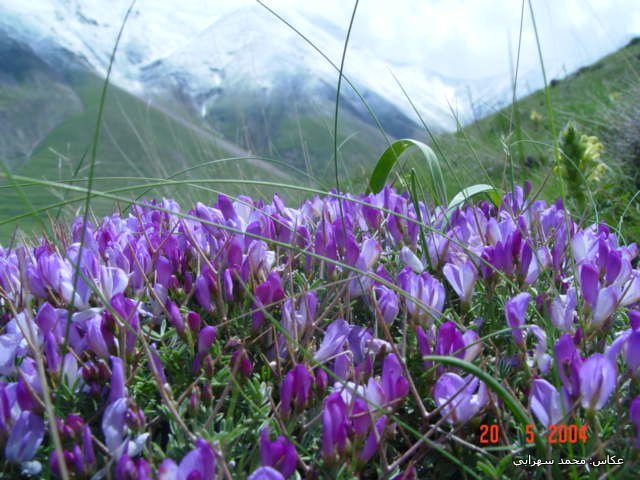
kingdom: Plantae
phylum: Tracheophyta
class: Magnoliopsida
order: Fabales
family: Fabaceae
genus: Onobrychis
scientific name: Onobrychis cornuta
